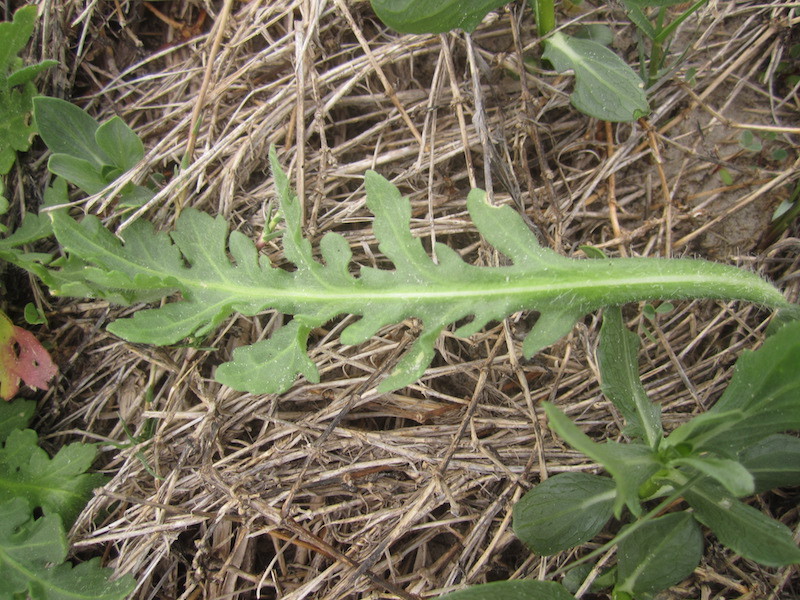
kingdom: Plantae
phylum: Tracheophyta
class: Magnoliopsida
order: Asterales
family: Asteraceae
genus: Gaillardia
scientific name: Gaillardia pulchella
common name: Firewheel
